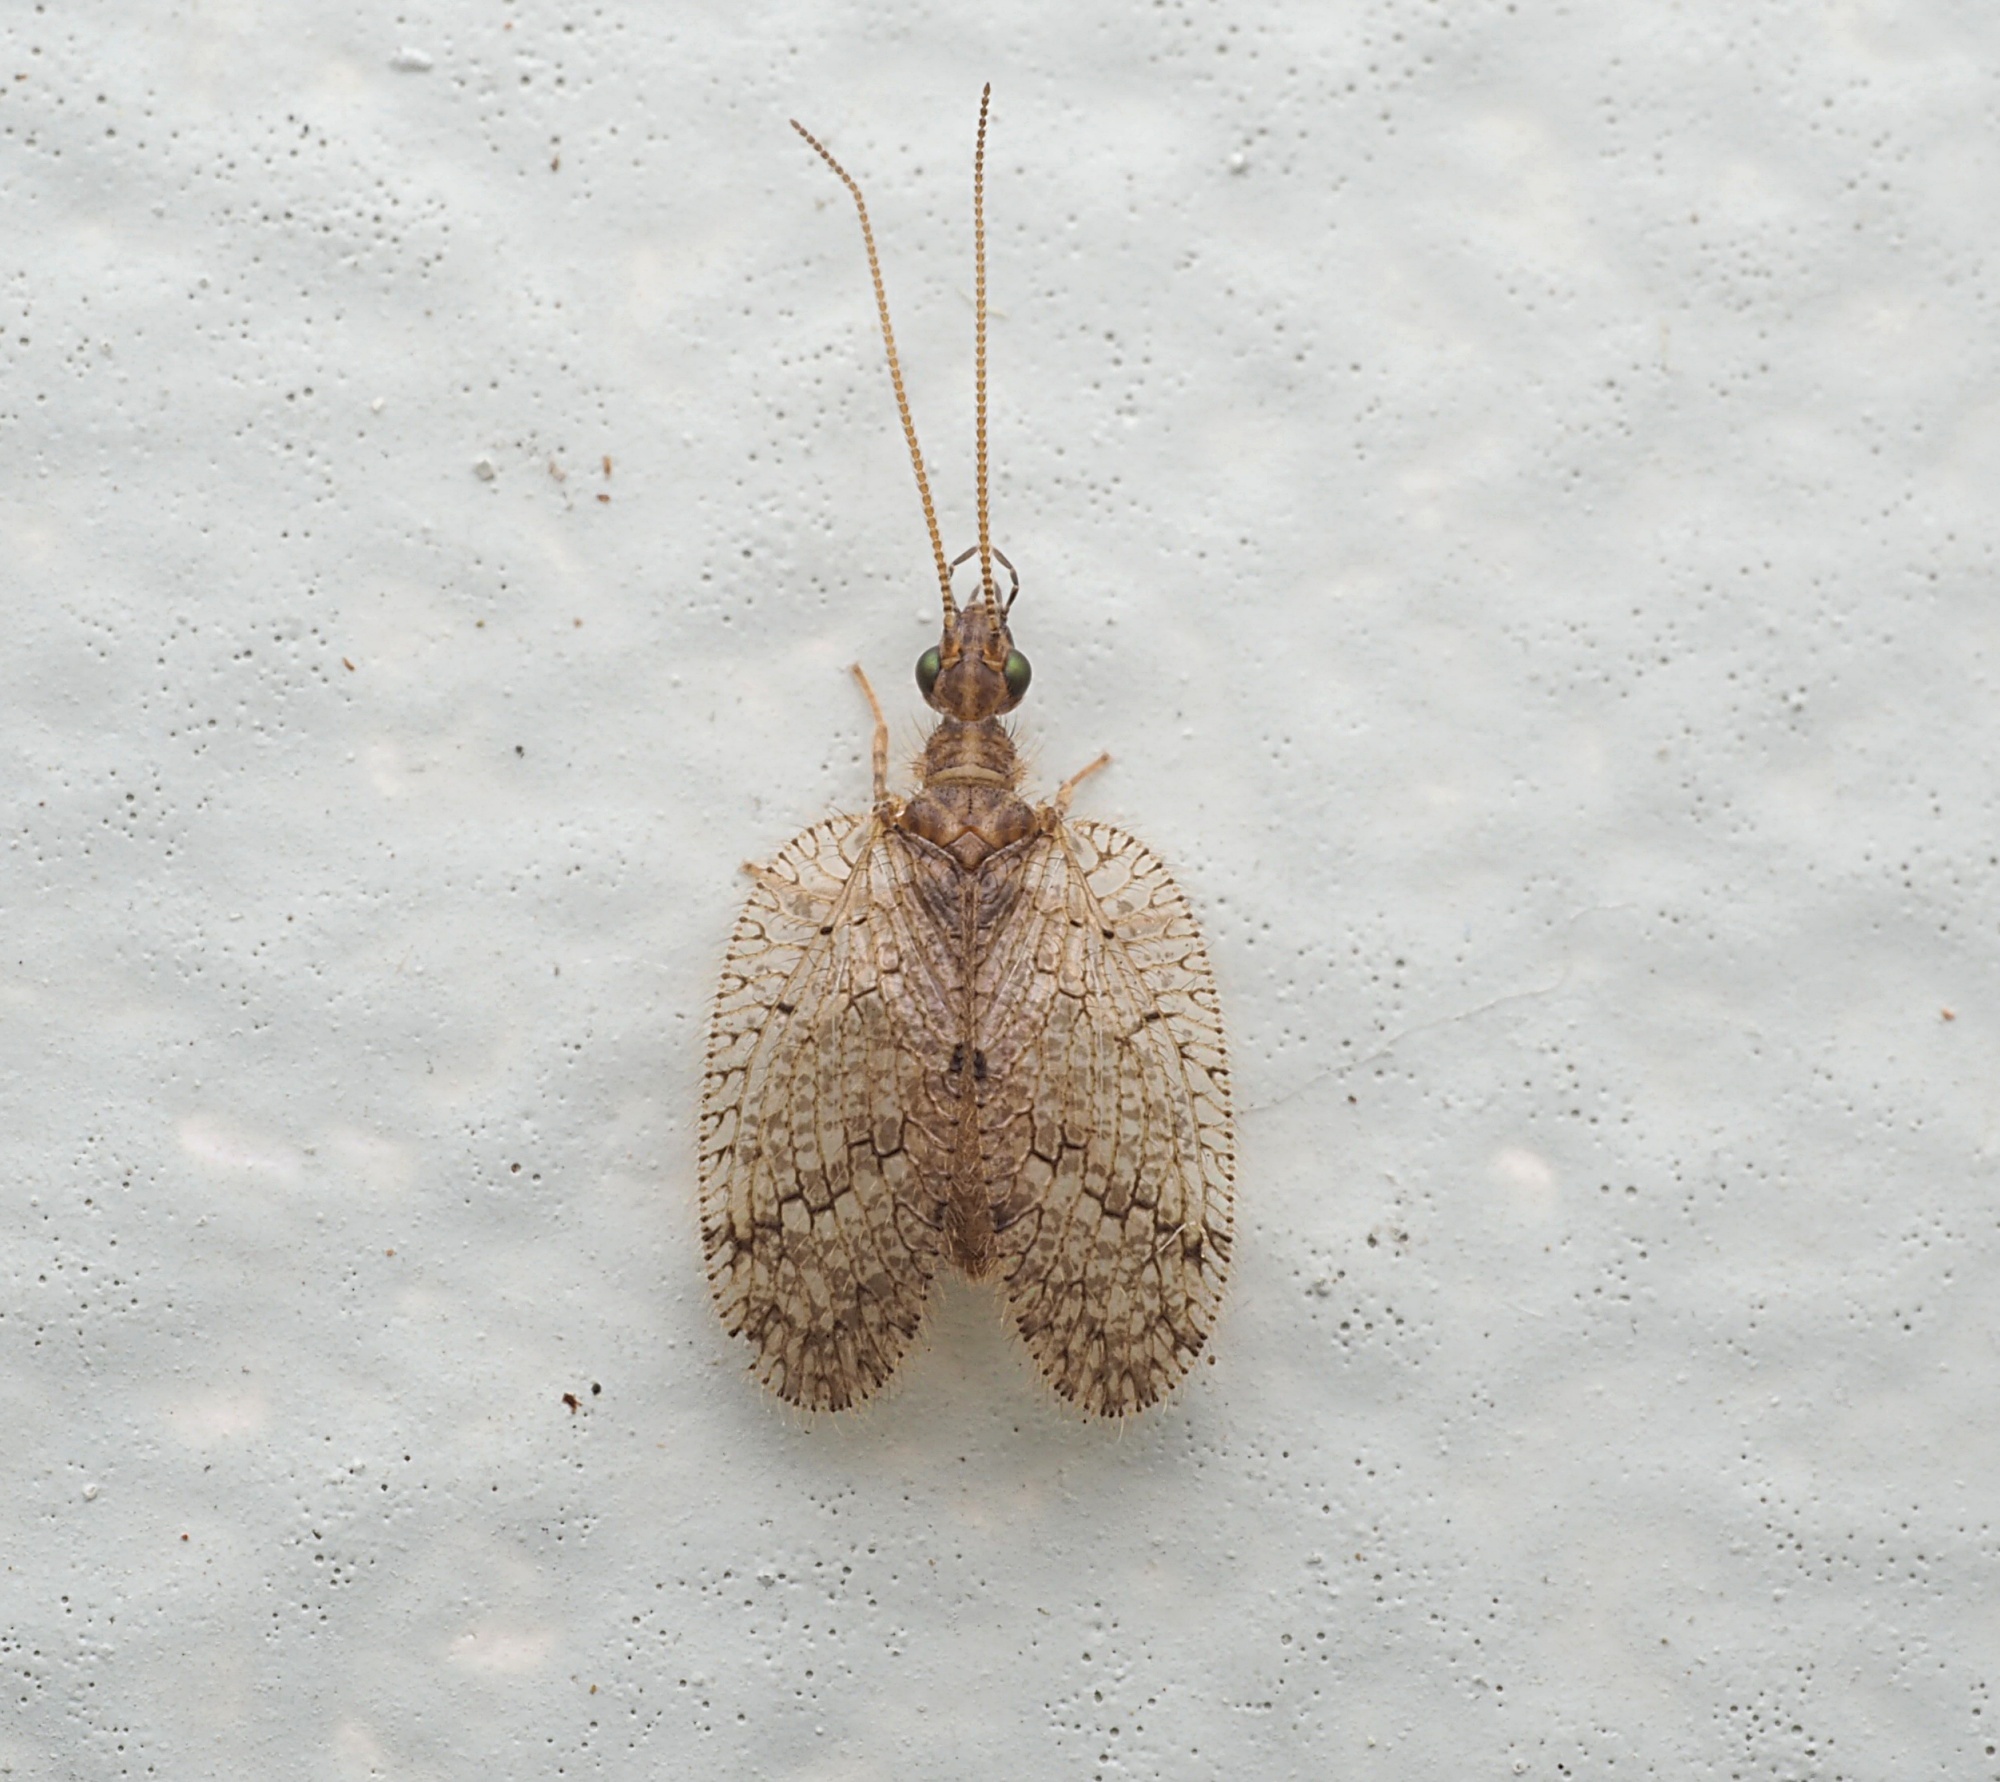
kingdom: Animalia
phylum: Arthropoda
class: Insecta
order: Neuroptera
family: Hemerobiidae
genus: Psectra
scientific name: Psectra nakaharai
